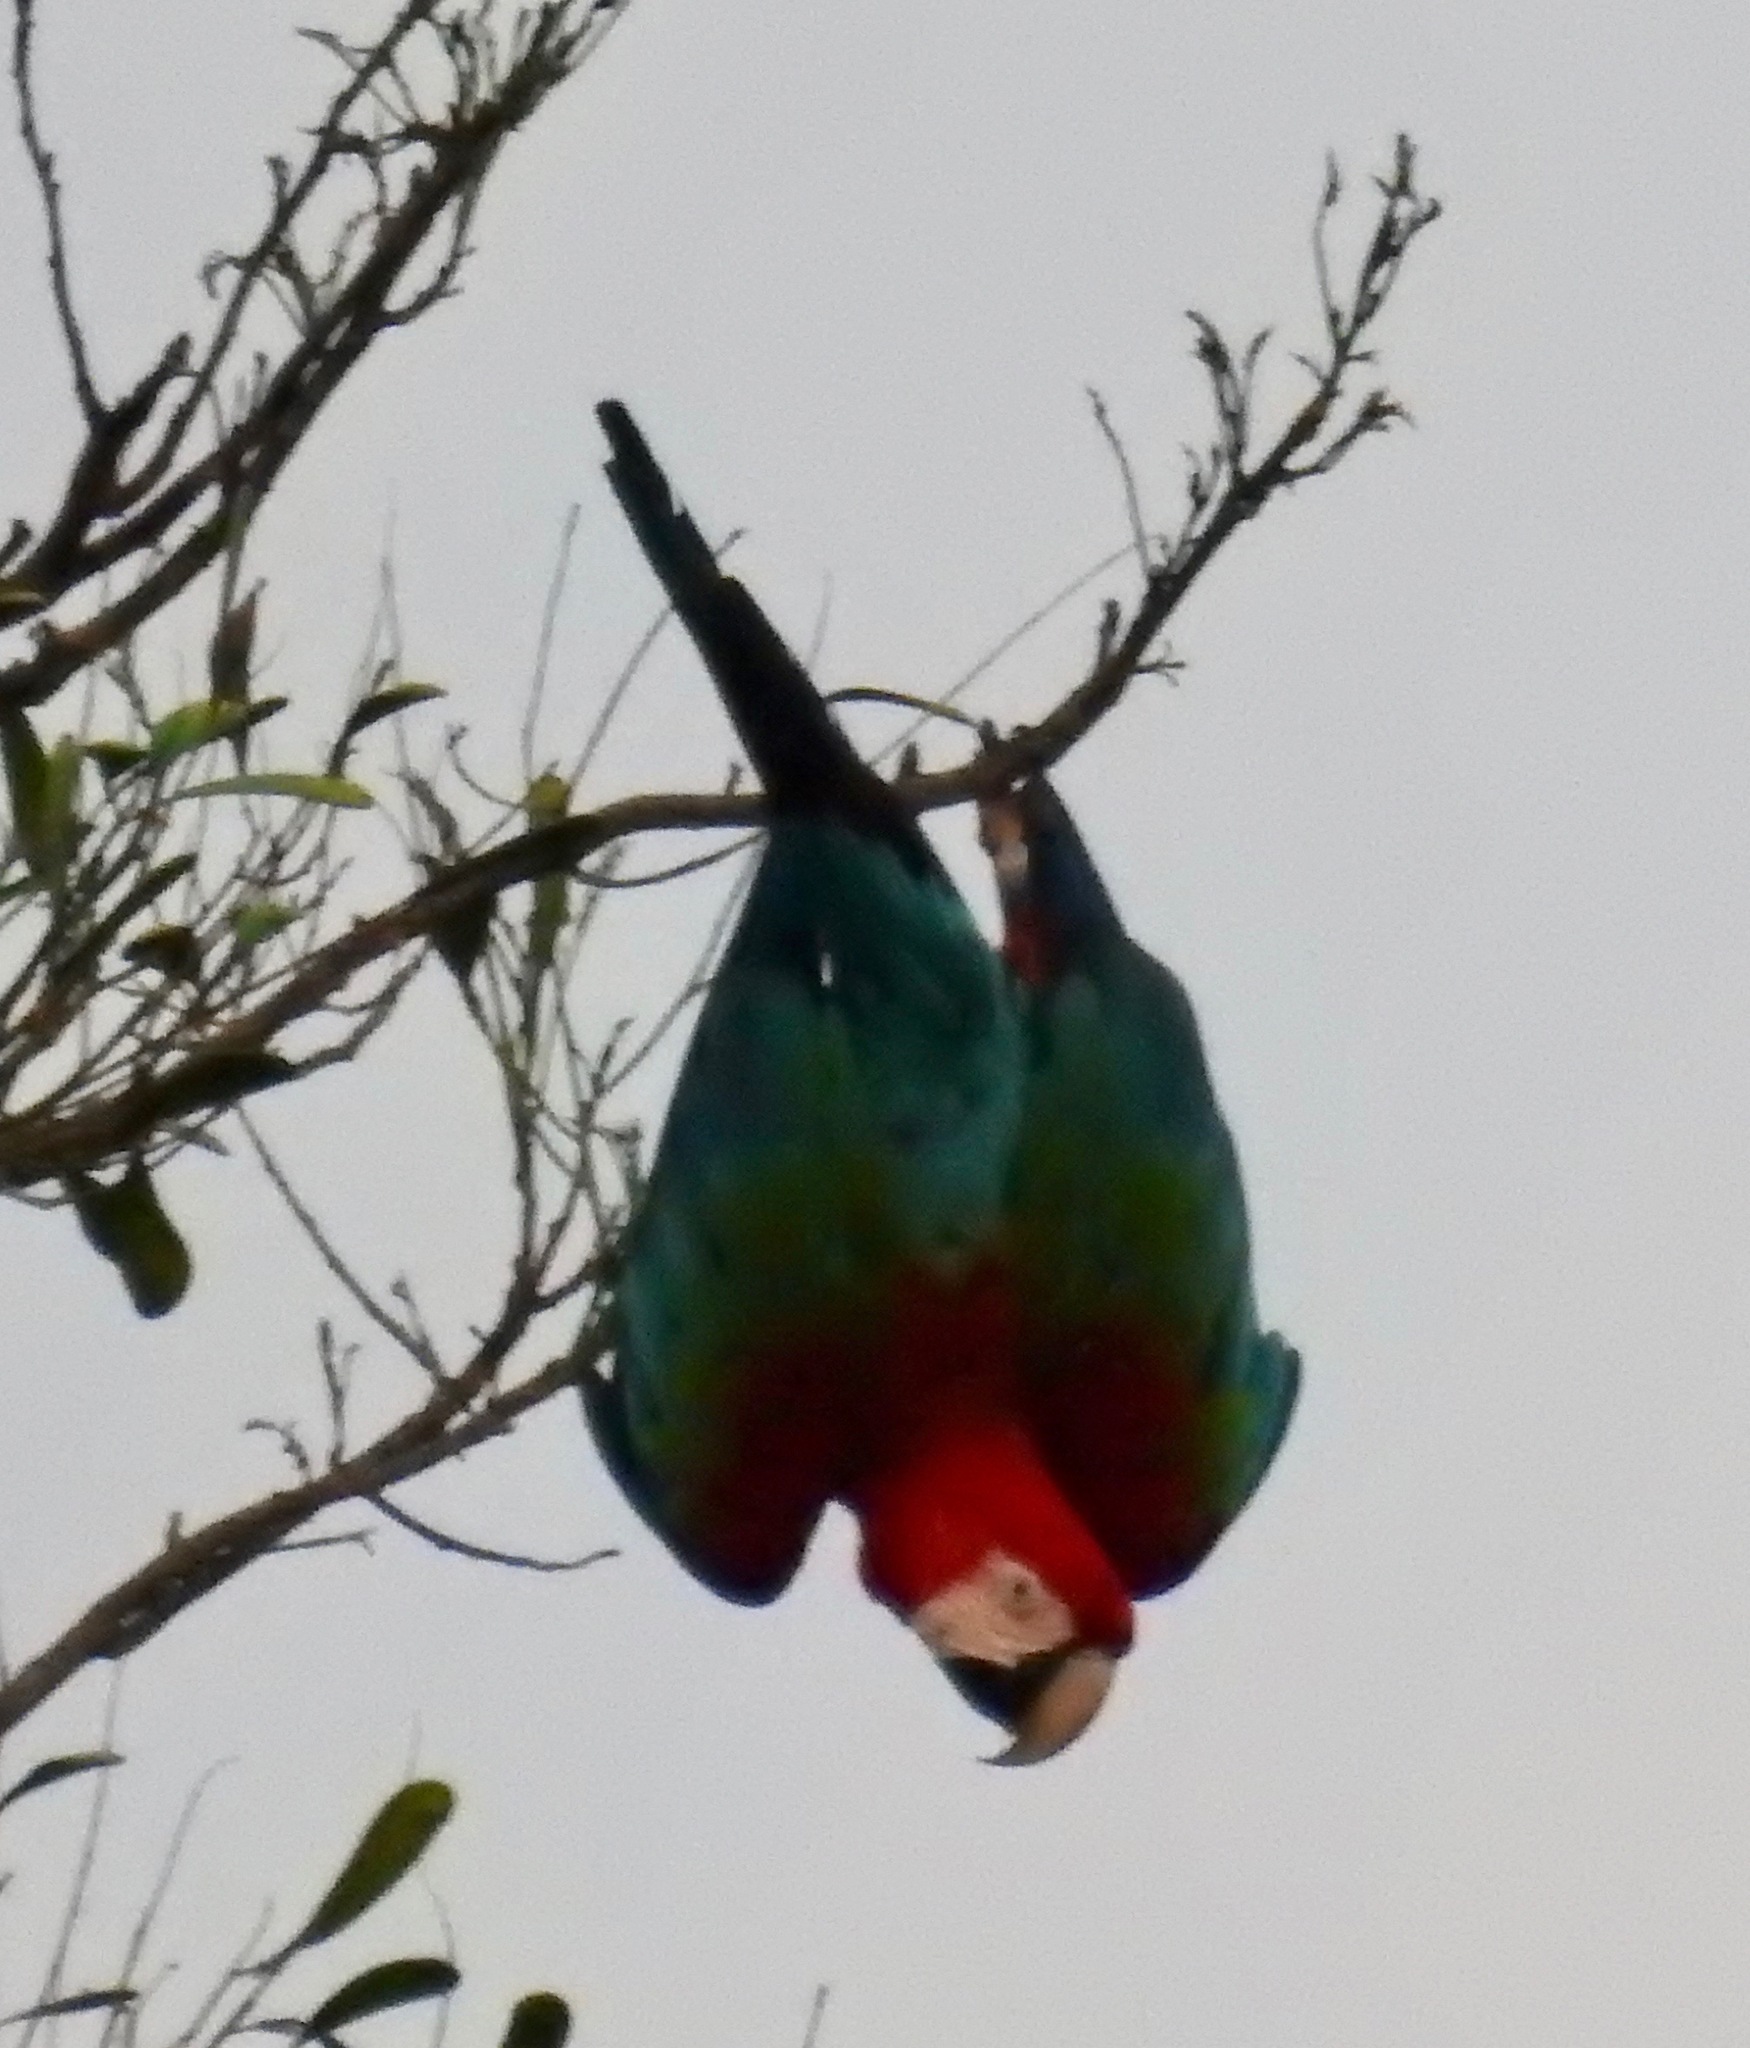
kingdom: Animalia
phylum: Chordata
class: Aves
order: Psittaciformes
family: Psittacidae
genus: Ara
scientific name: Ara chloropterus
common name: Red-and-green macaw
